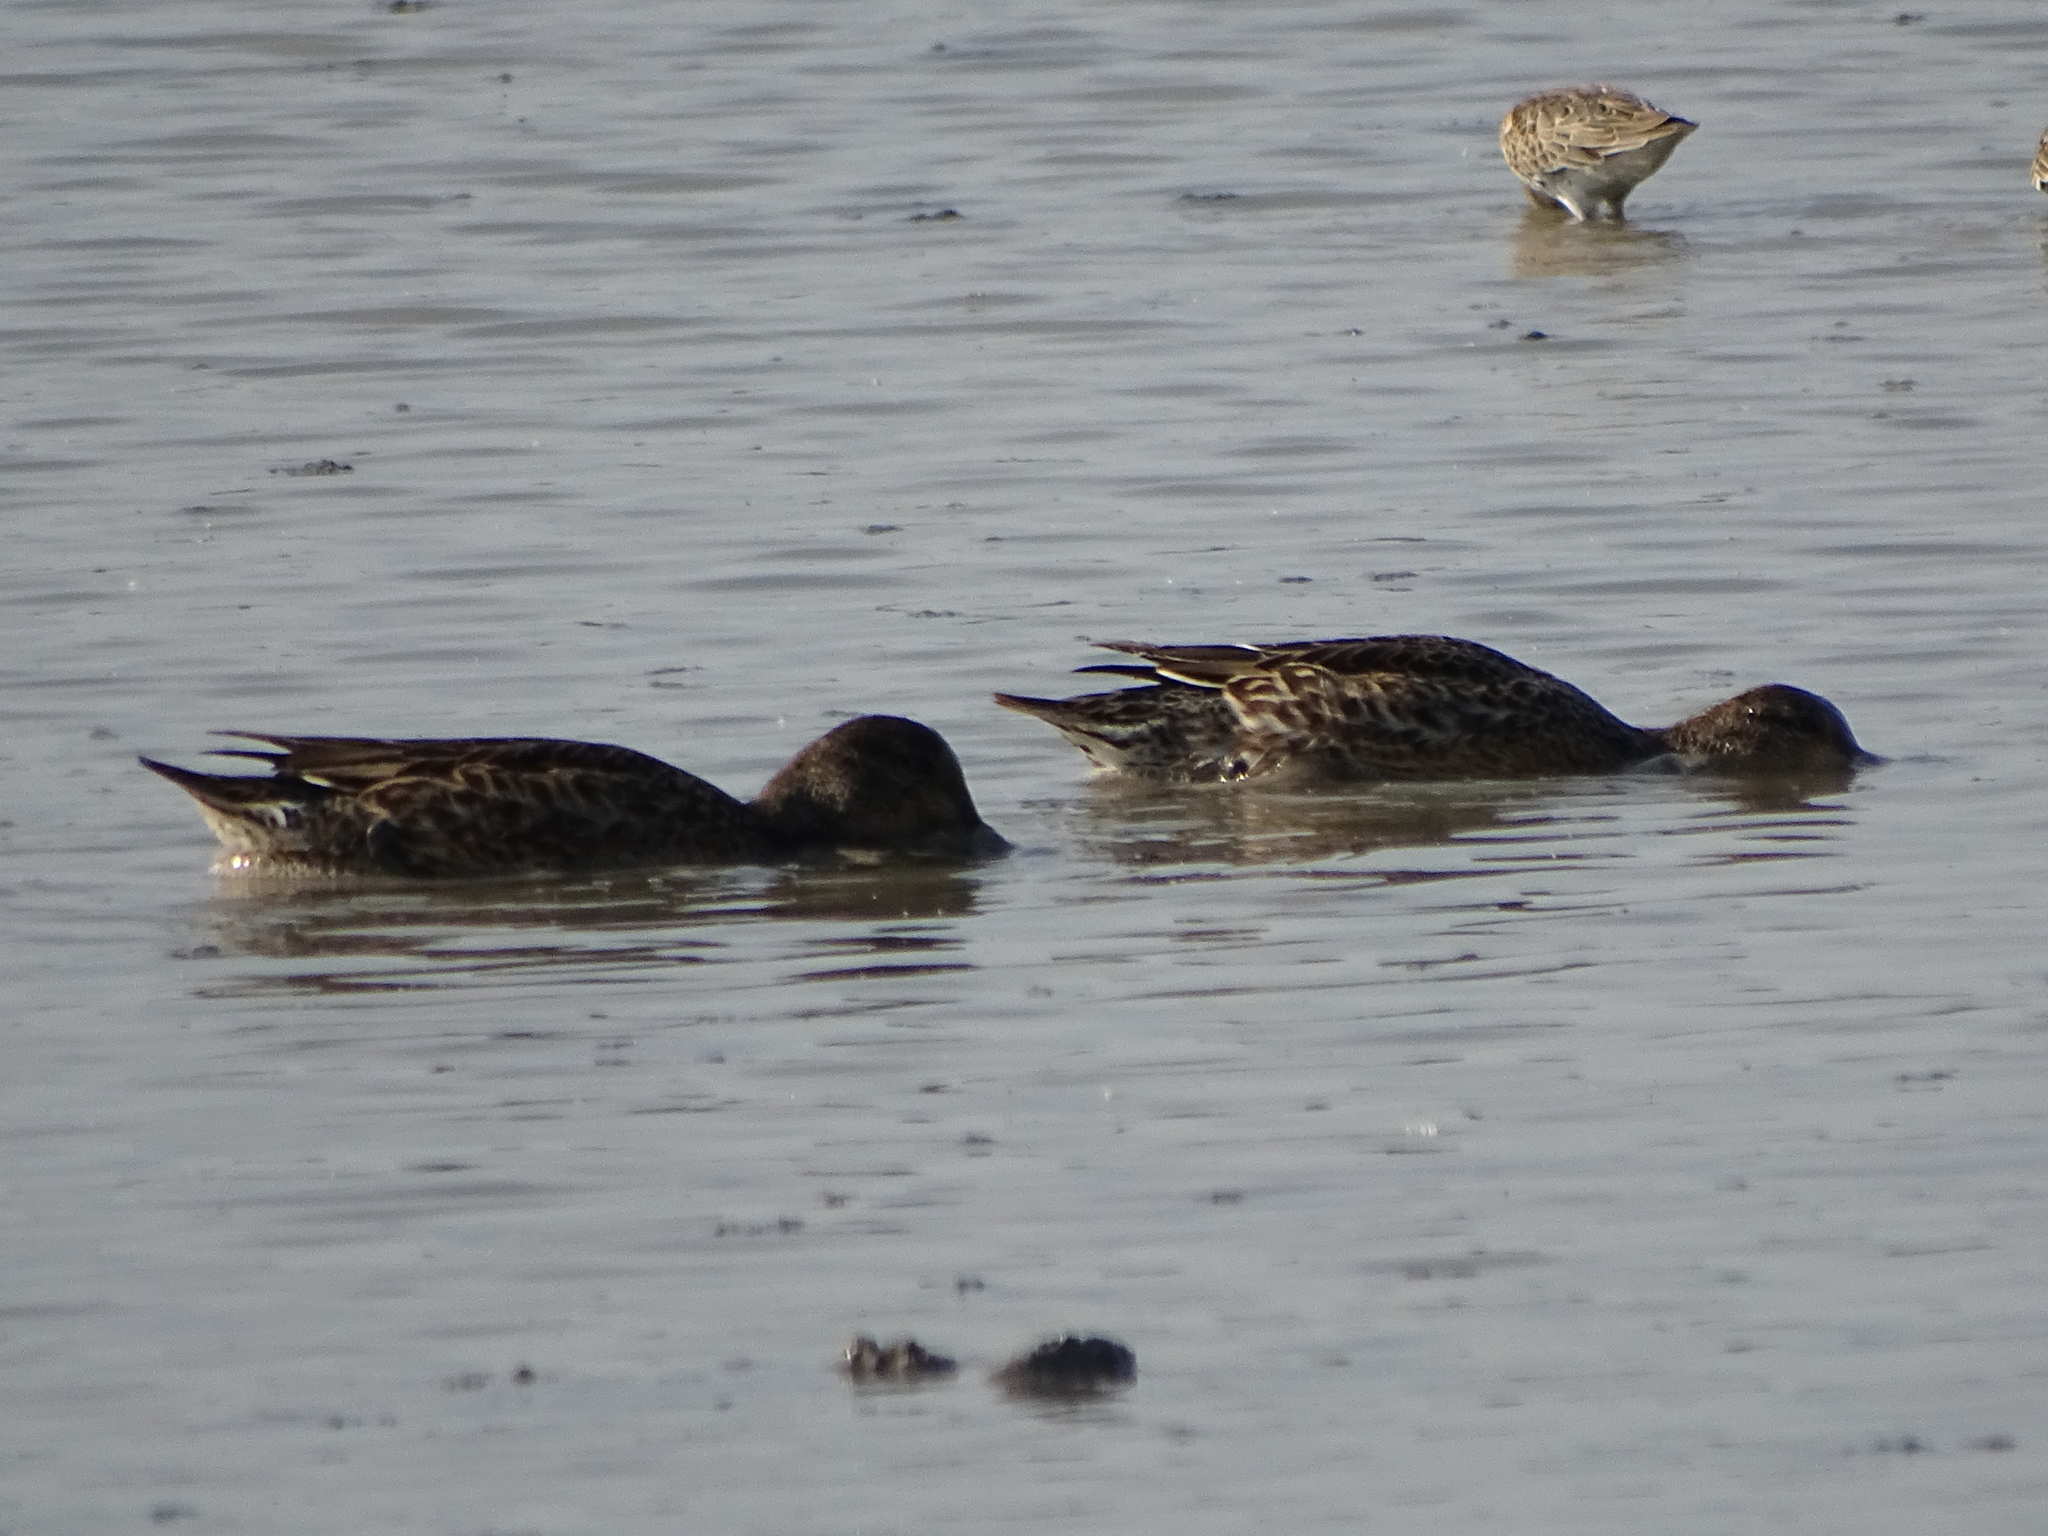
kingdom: Animalia
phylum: Chordata
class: Aves
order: Anseriformes
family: Anatidae
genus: Anas
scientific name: Anas crecca
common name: Eurasian teal
